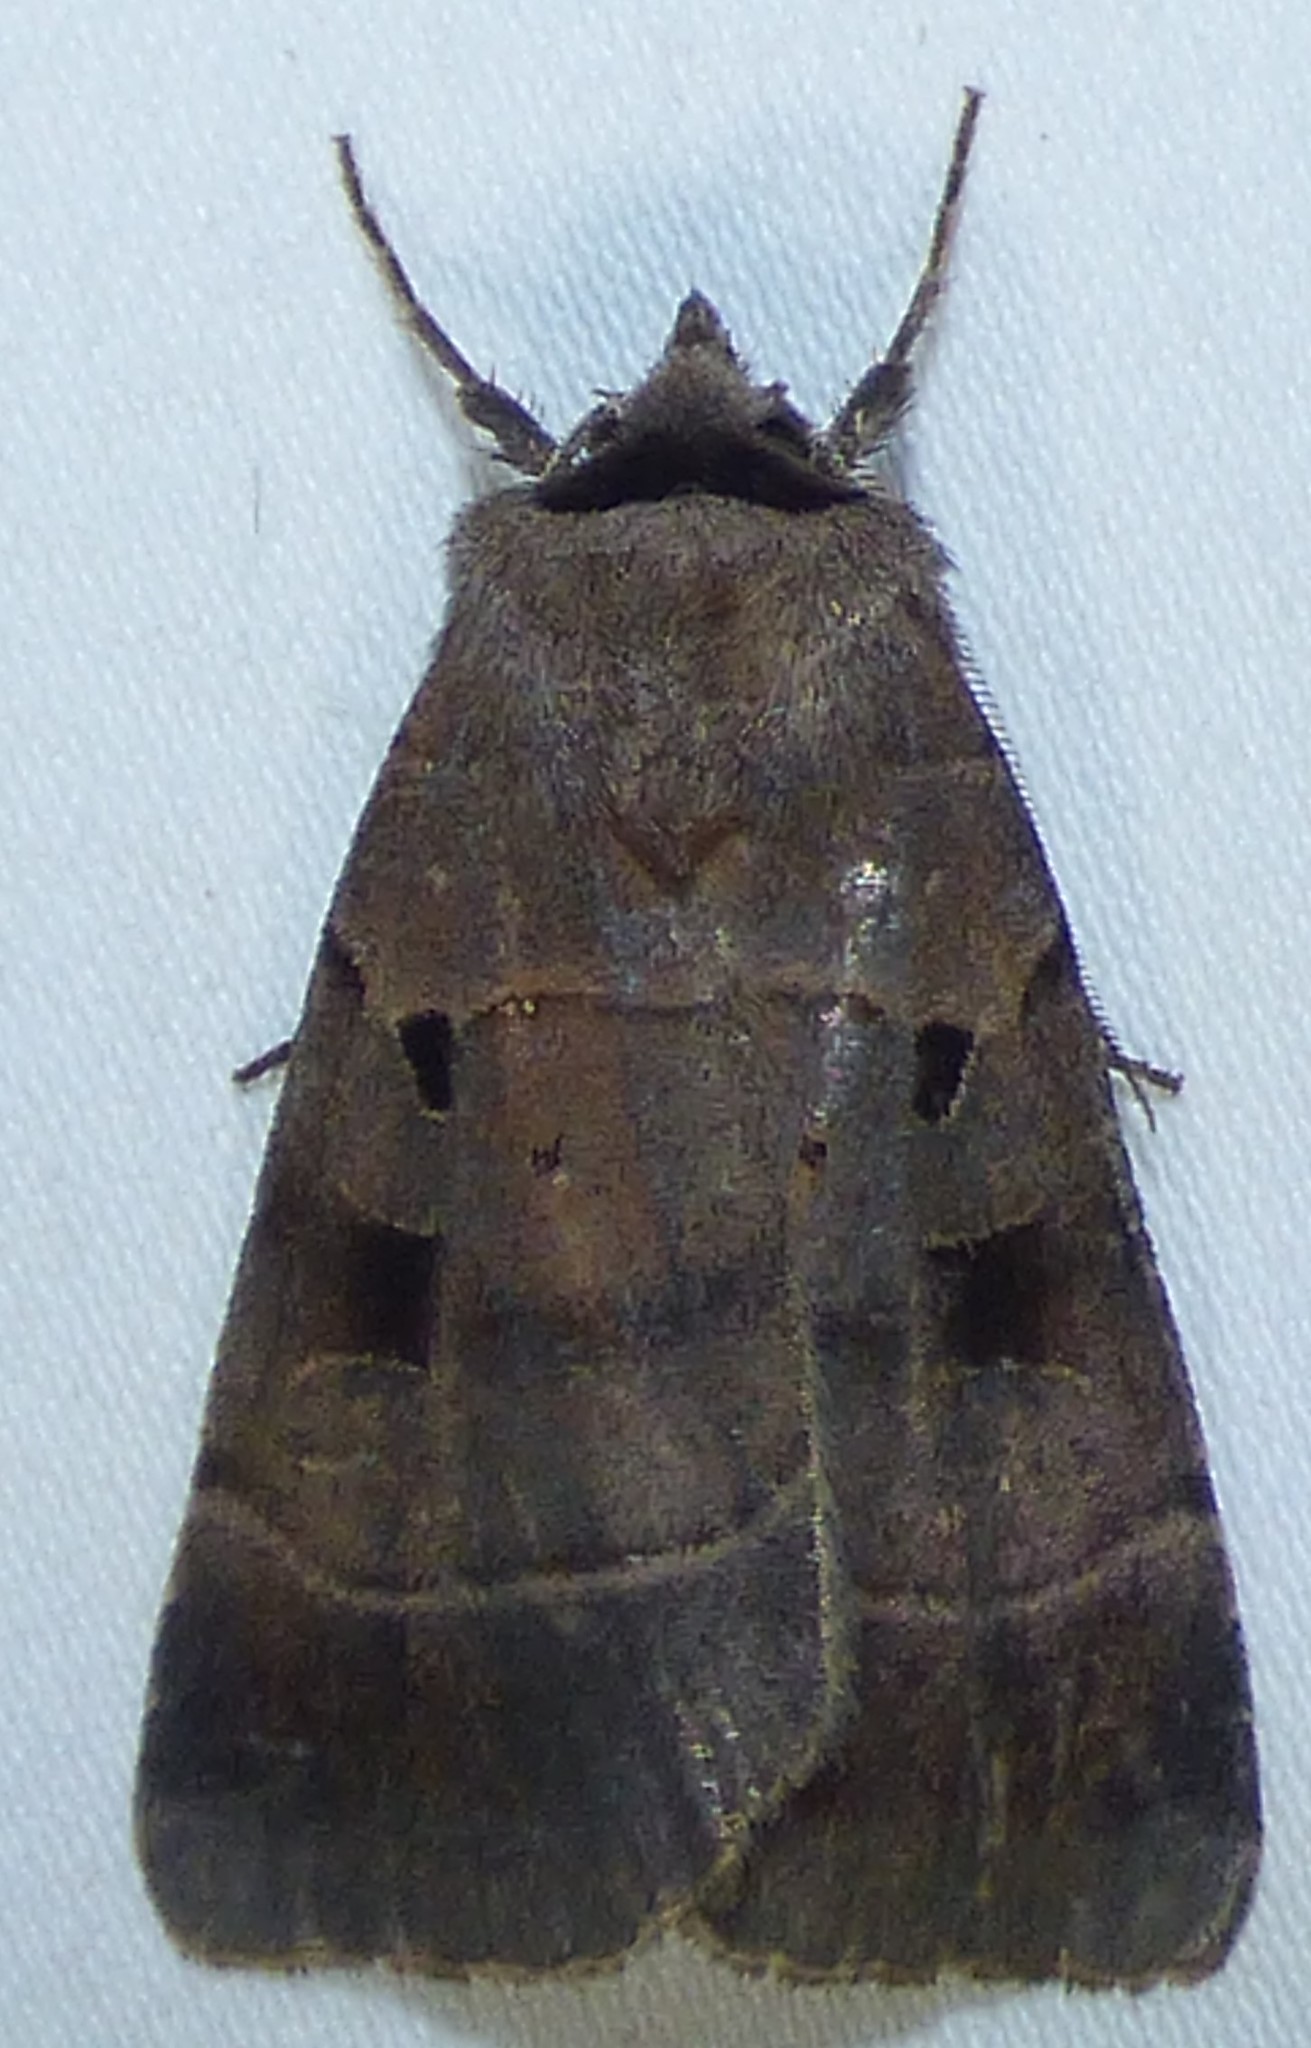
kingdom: Animalia
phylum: Arthropoda
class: Insecta
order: Lepidoptera
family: Noctuidae
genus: Agnorisma
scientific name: Agnorisma badinodis
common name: Pale-banded dart
